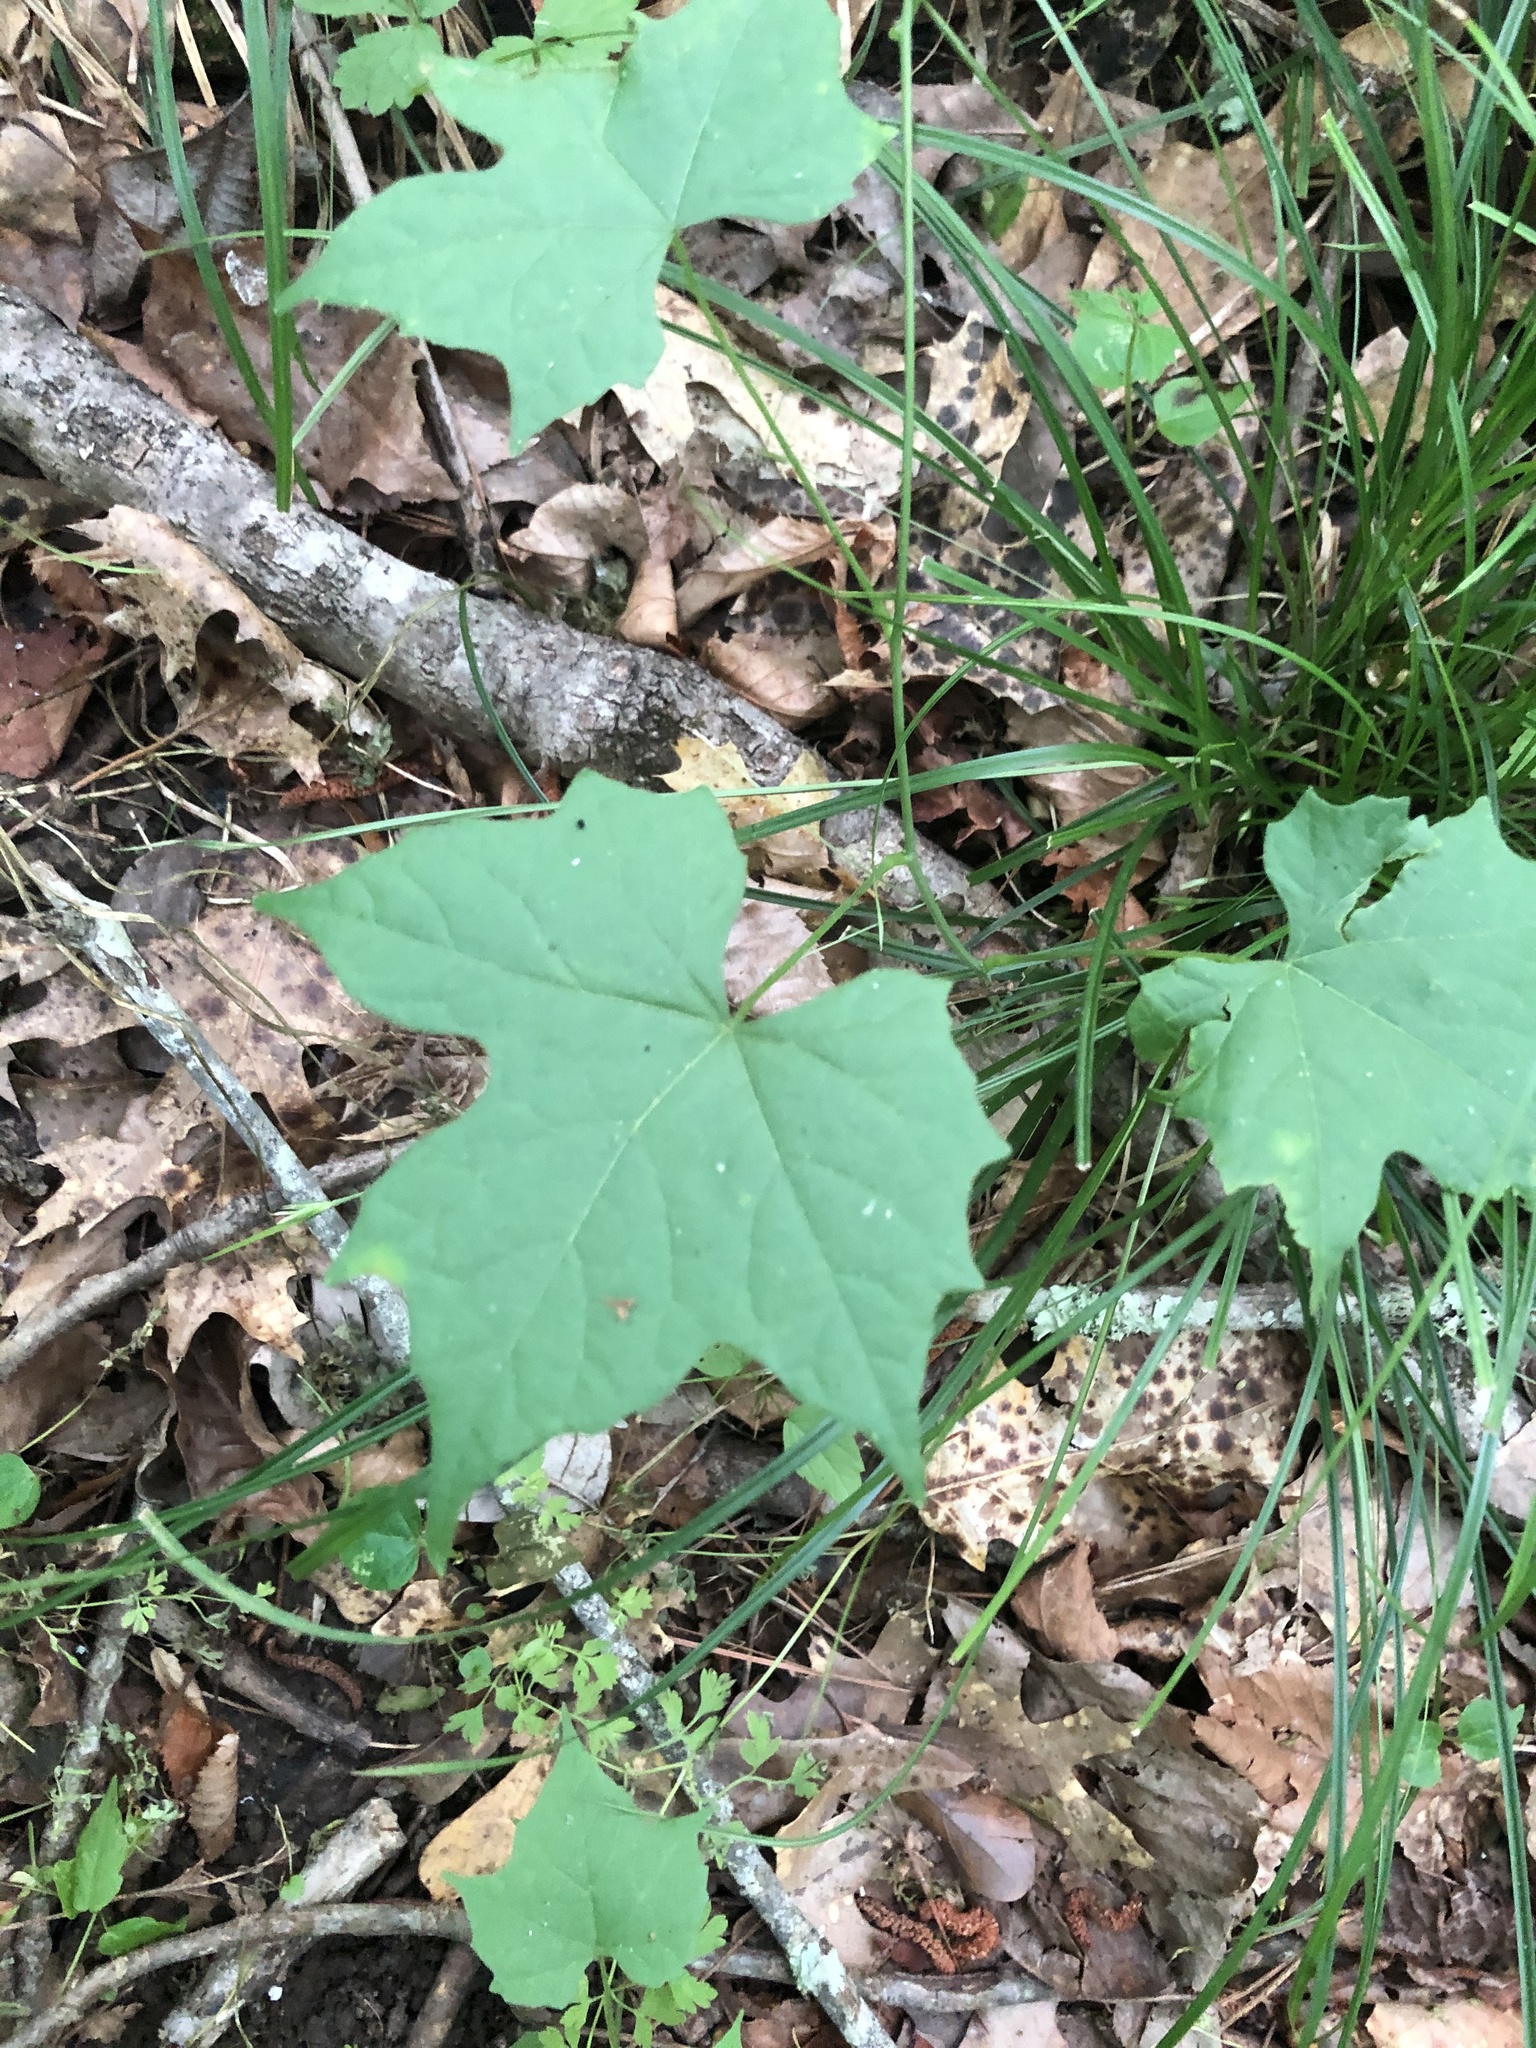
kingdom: Plantae
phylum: Tracheophyta
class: Magnoliopsida
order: Ranunculales
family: Menispermaceae
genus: Calycocarpum
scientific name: Calycocarpum lyonii
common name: Cupseed
